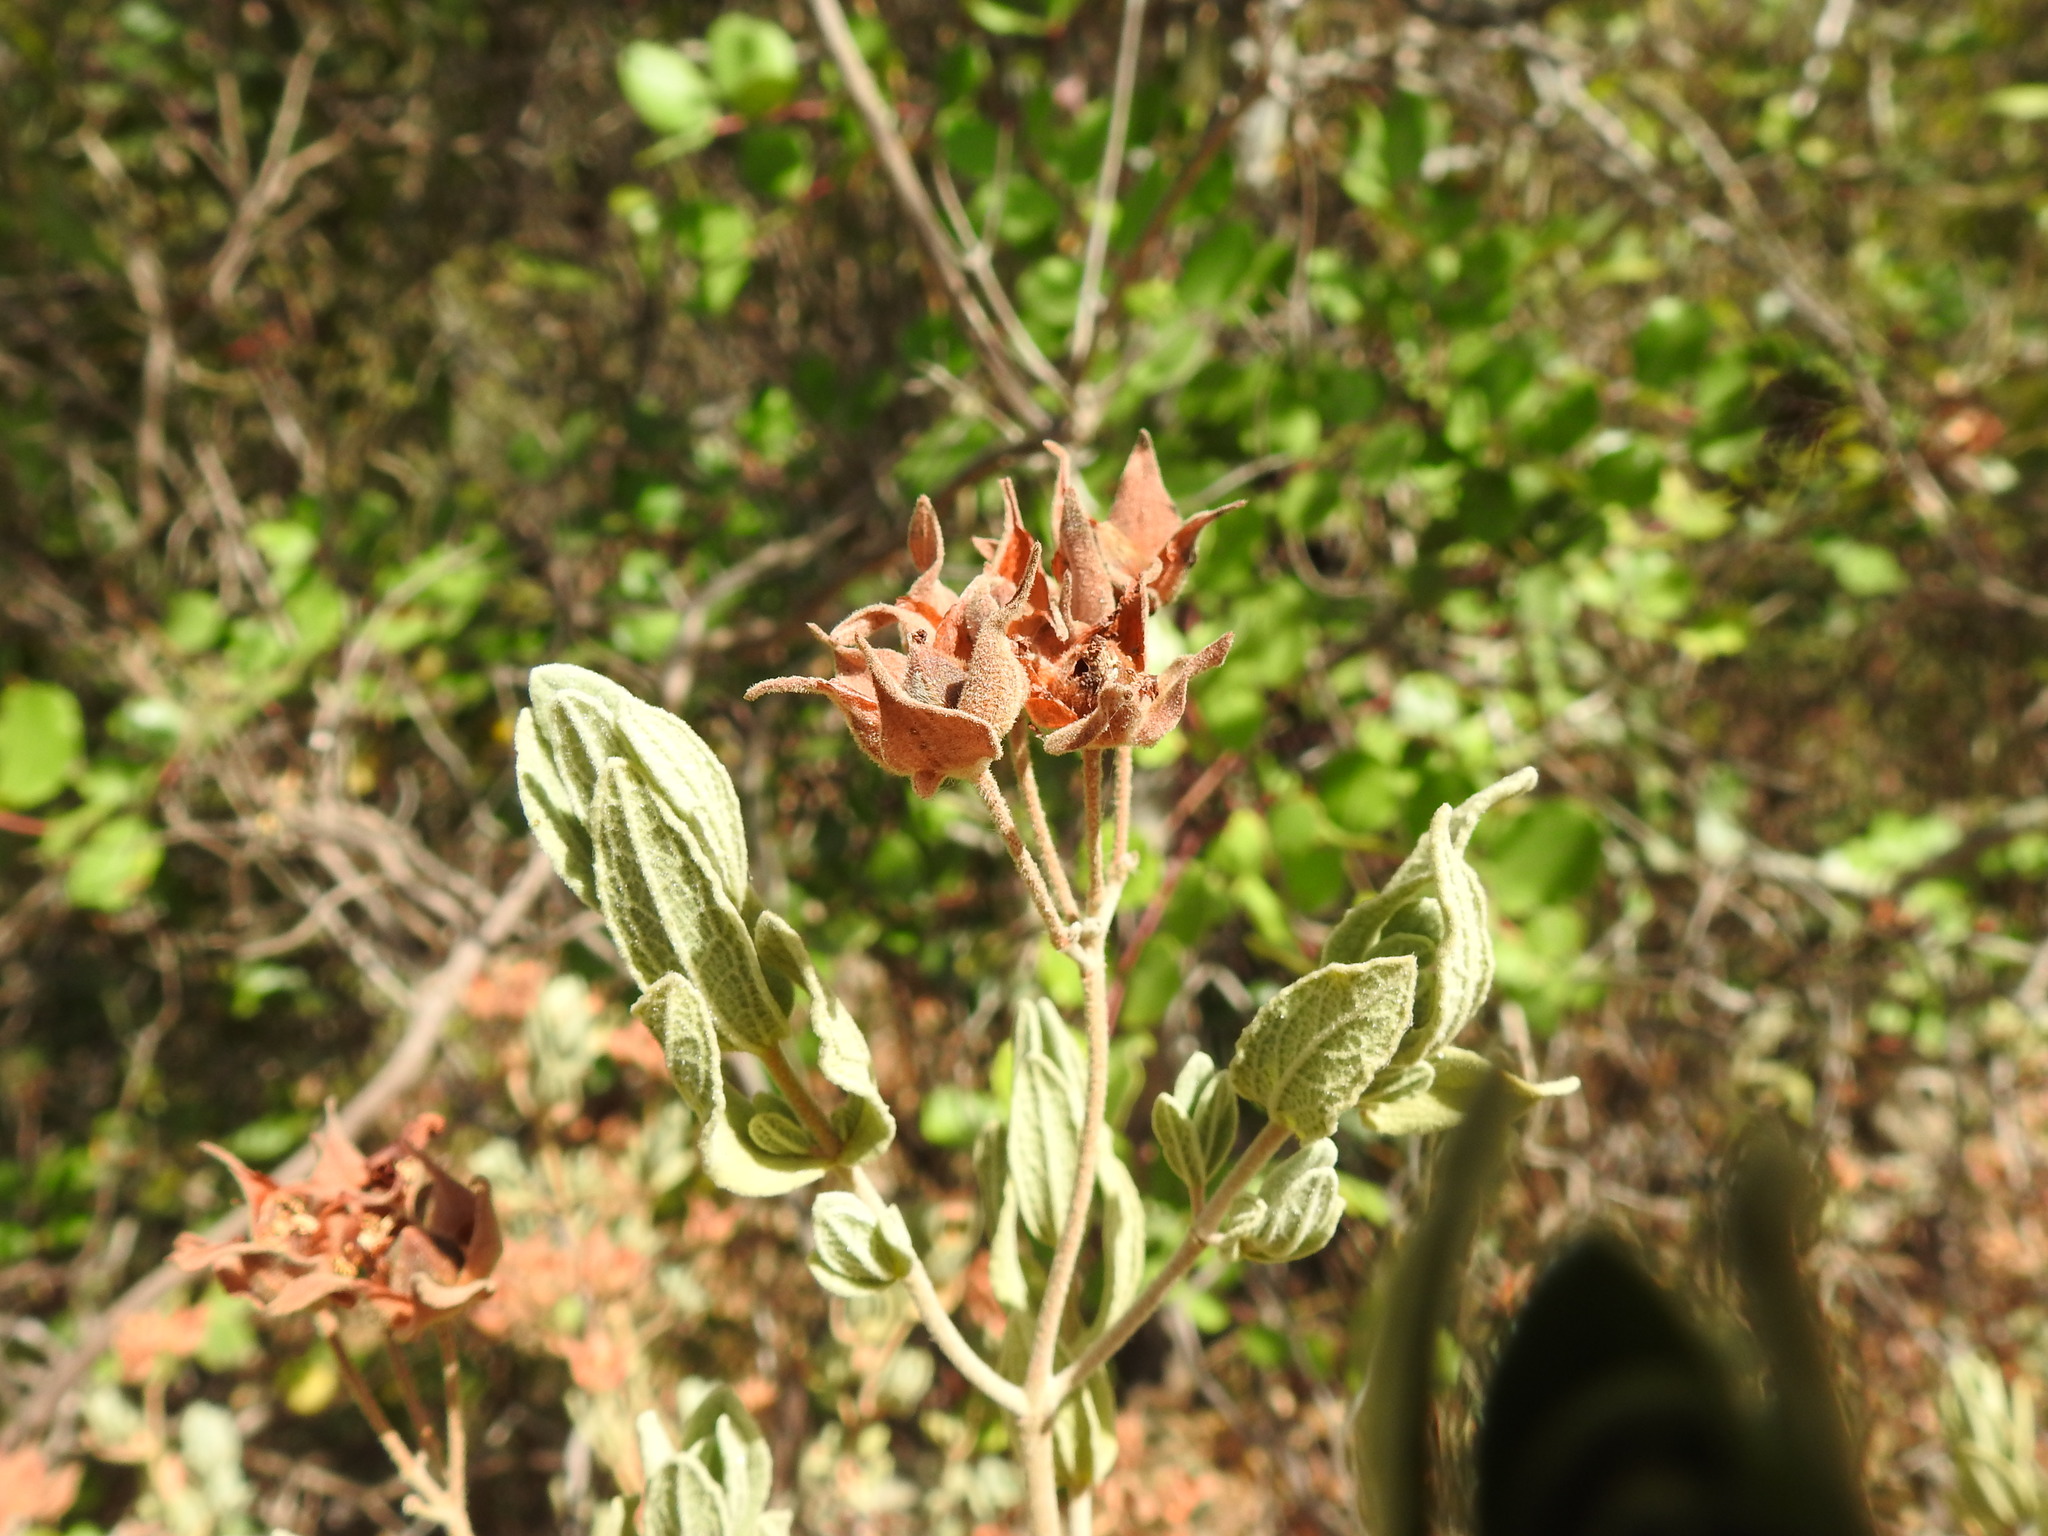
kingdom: Plantae
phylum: Tracheophyta
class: Magnoliopsida
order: Malvales
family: Cistaceae
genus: Cistus
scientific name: Cistus albidus
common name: White-leaf rock-rose
